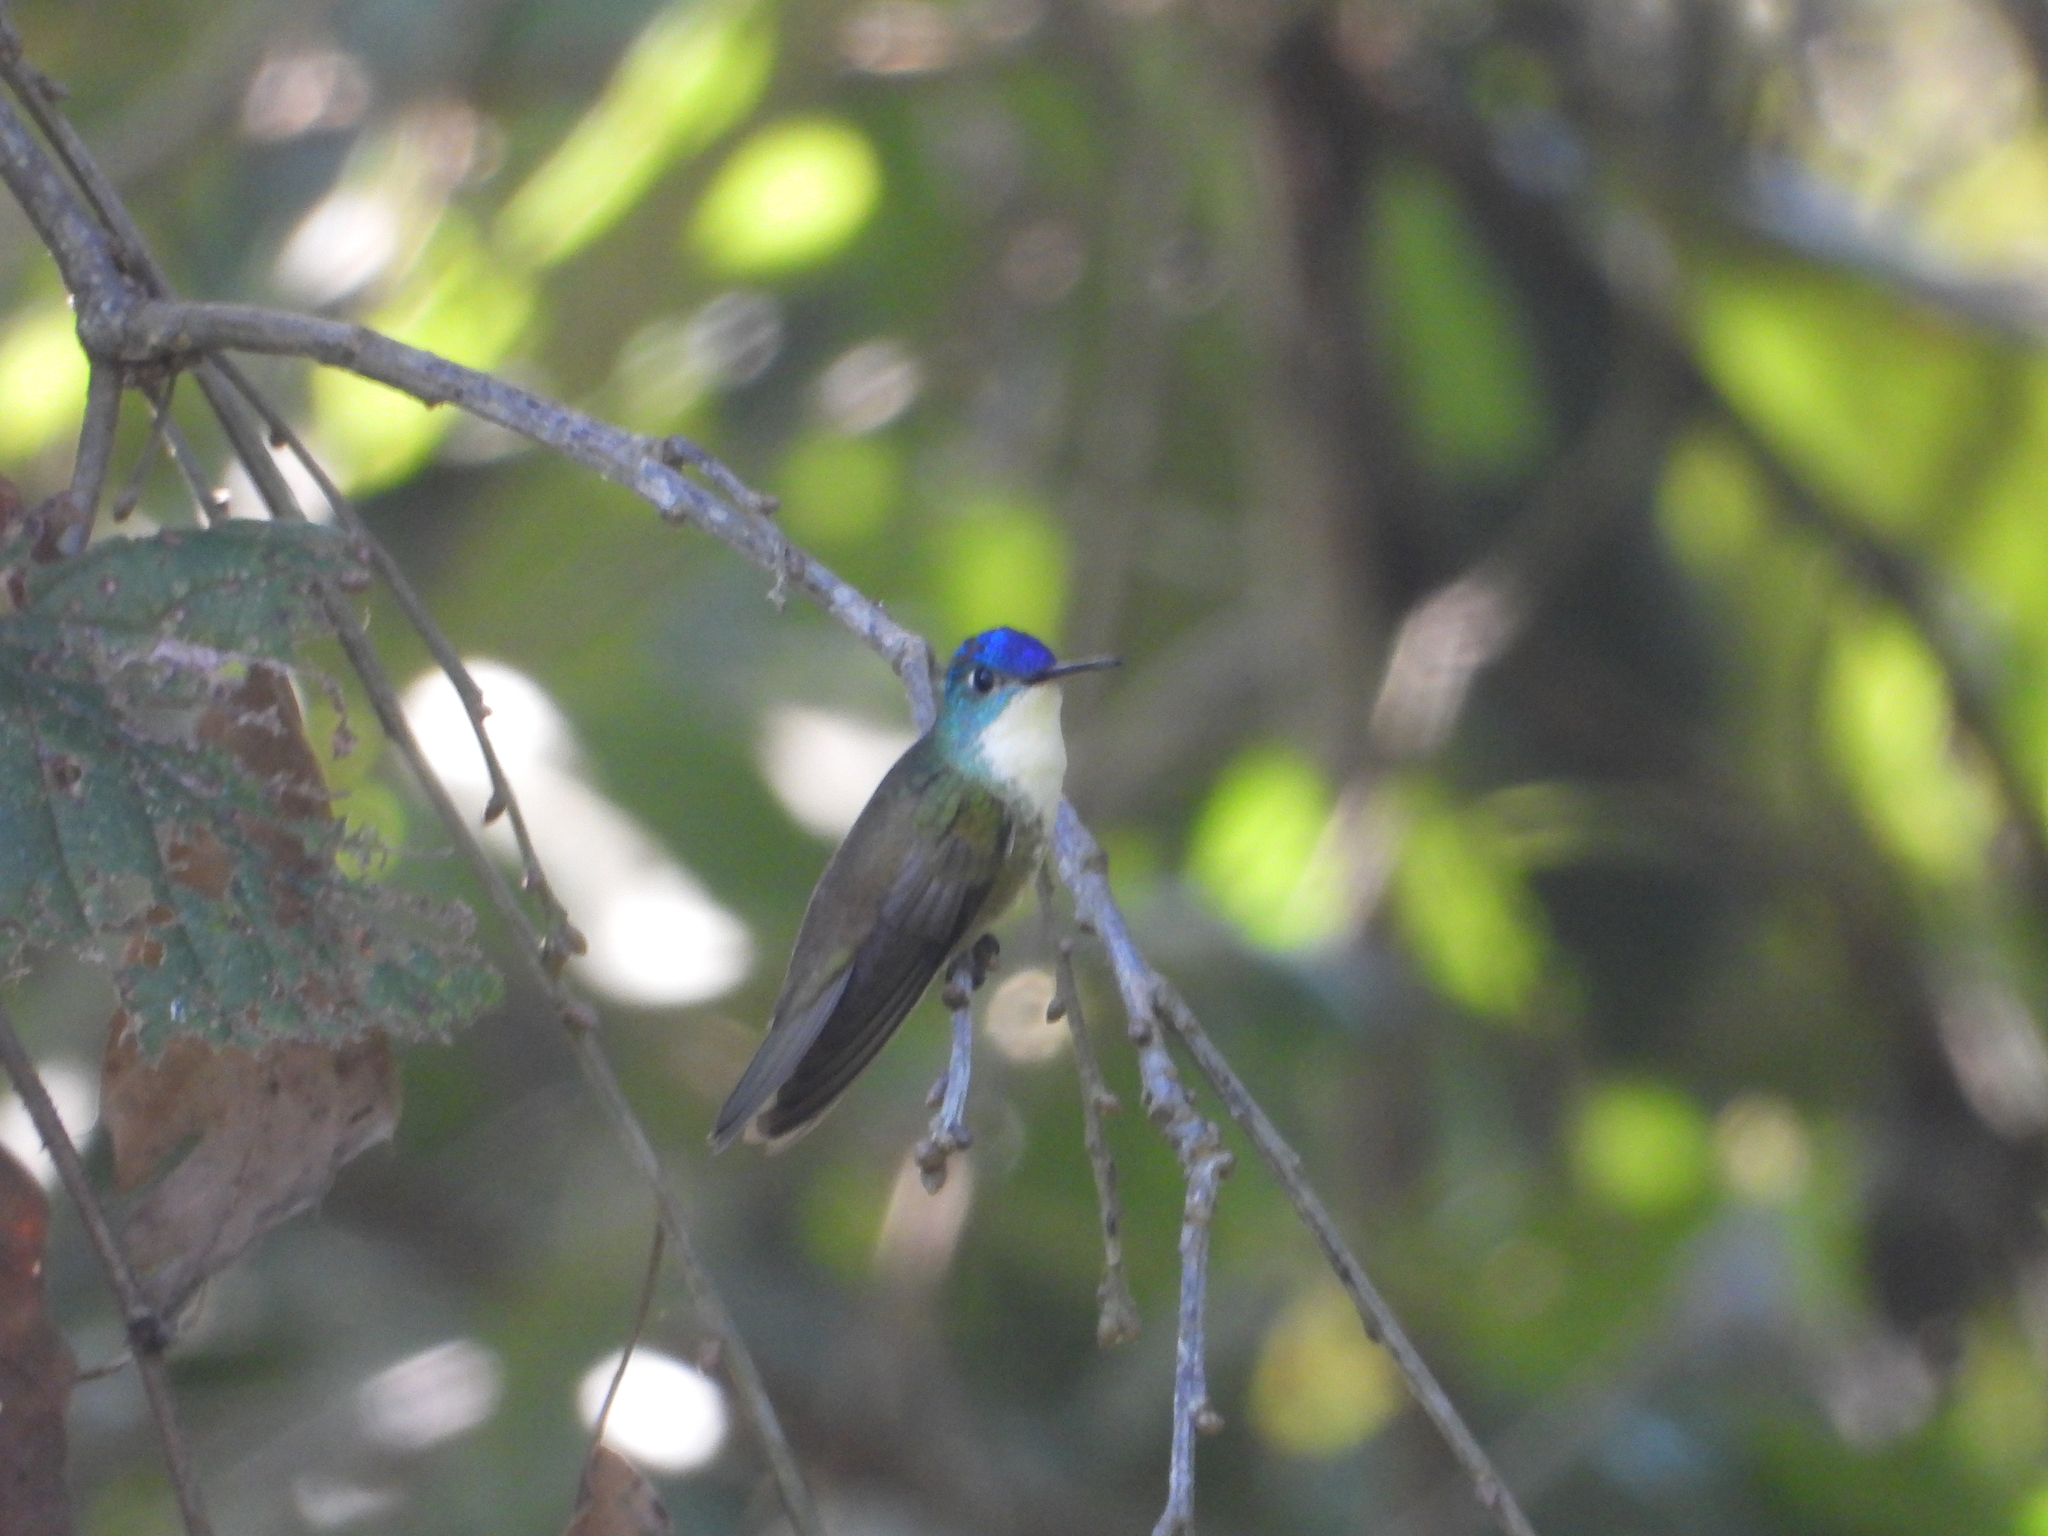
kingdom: Animalia
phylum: Chordata
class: Aves
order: Apodiformes
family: Trochilidae
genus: Saucerottia
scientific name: Saucerottia cyanocephala
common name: Azure-crowned hummingbird
